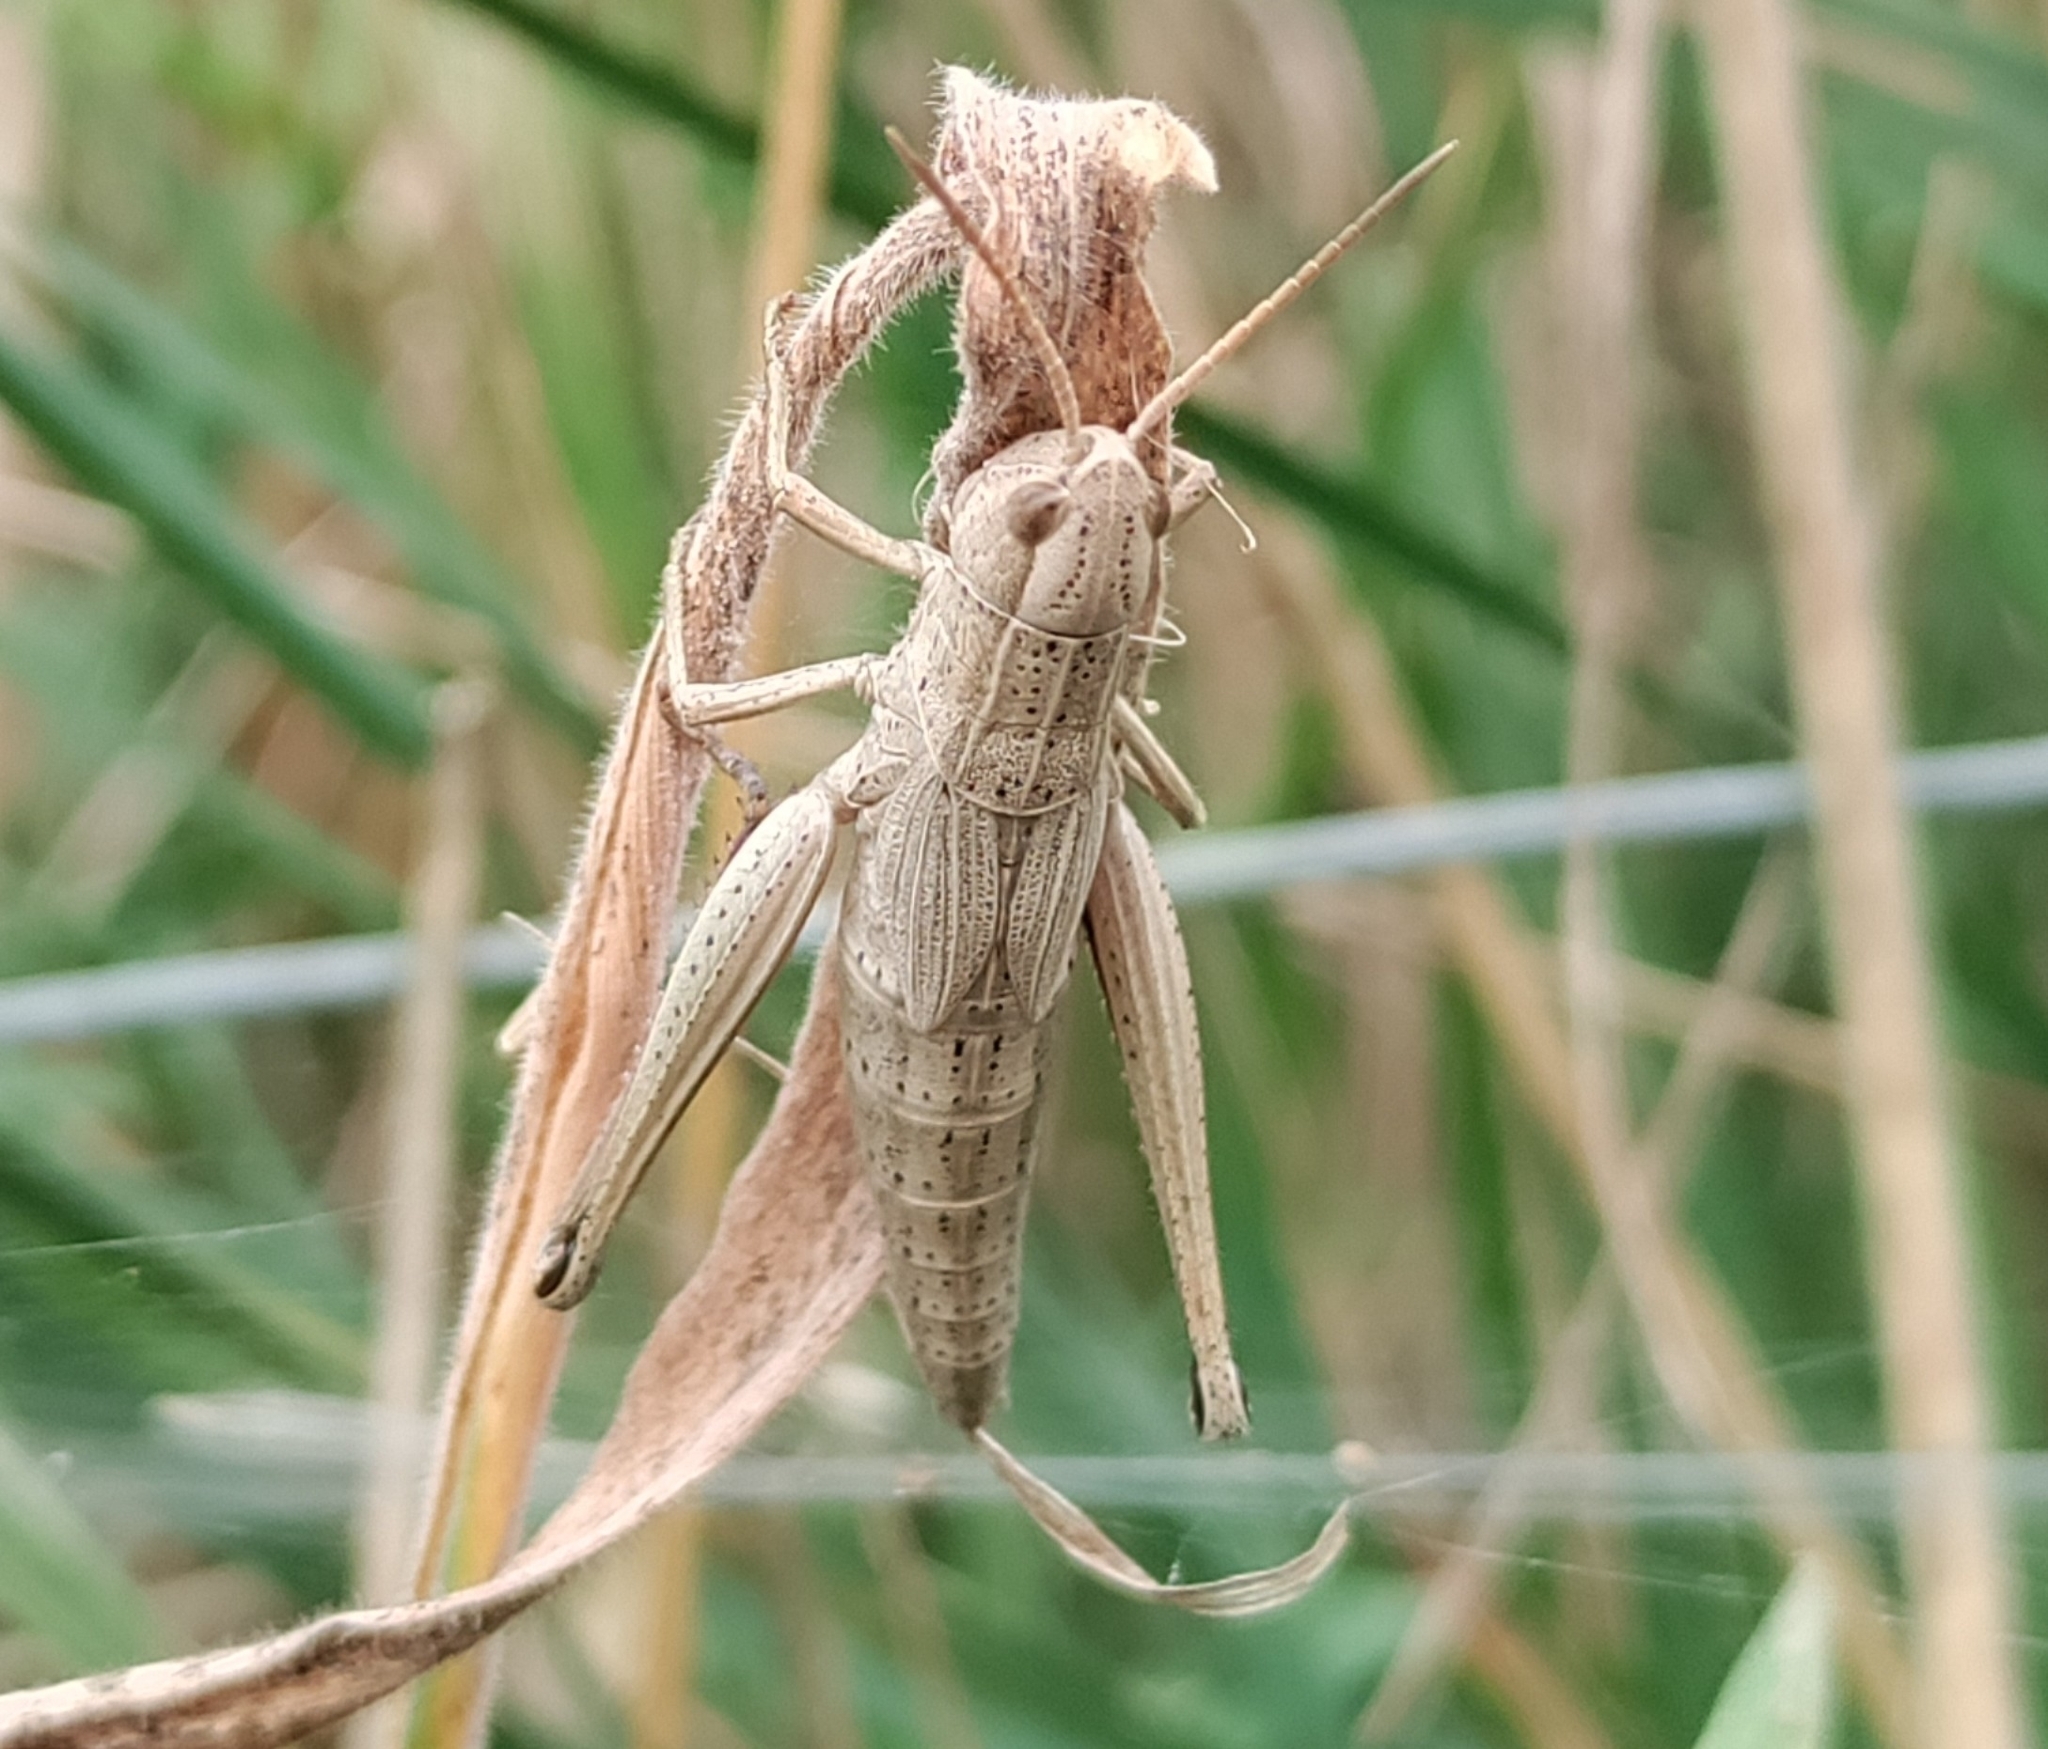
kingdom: Animalia
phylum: Arthropoda
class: Insecta
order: Orthoptera
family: Acrididae
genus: Chrysochraon
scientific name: Chrysochraon dispar
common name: Large gold grasshopper
